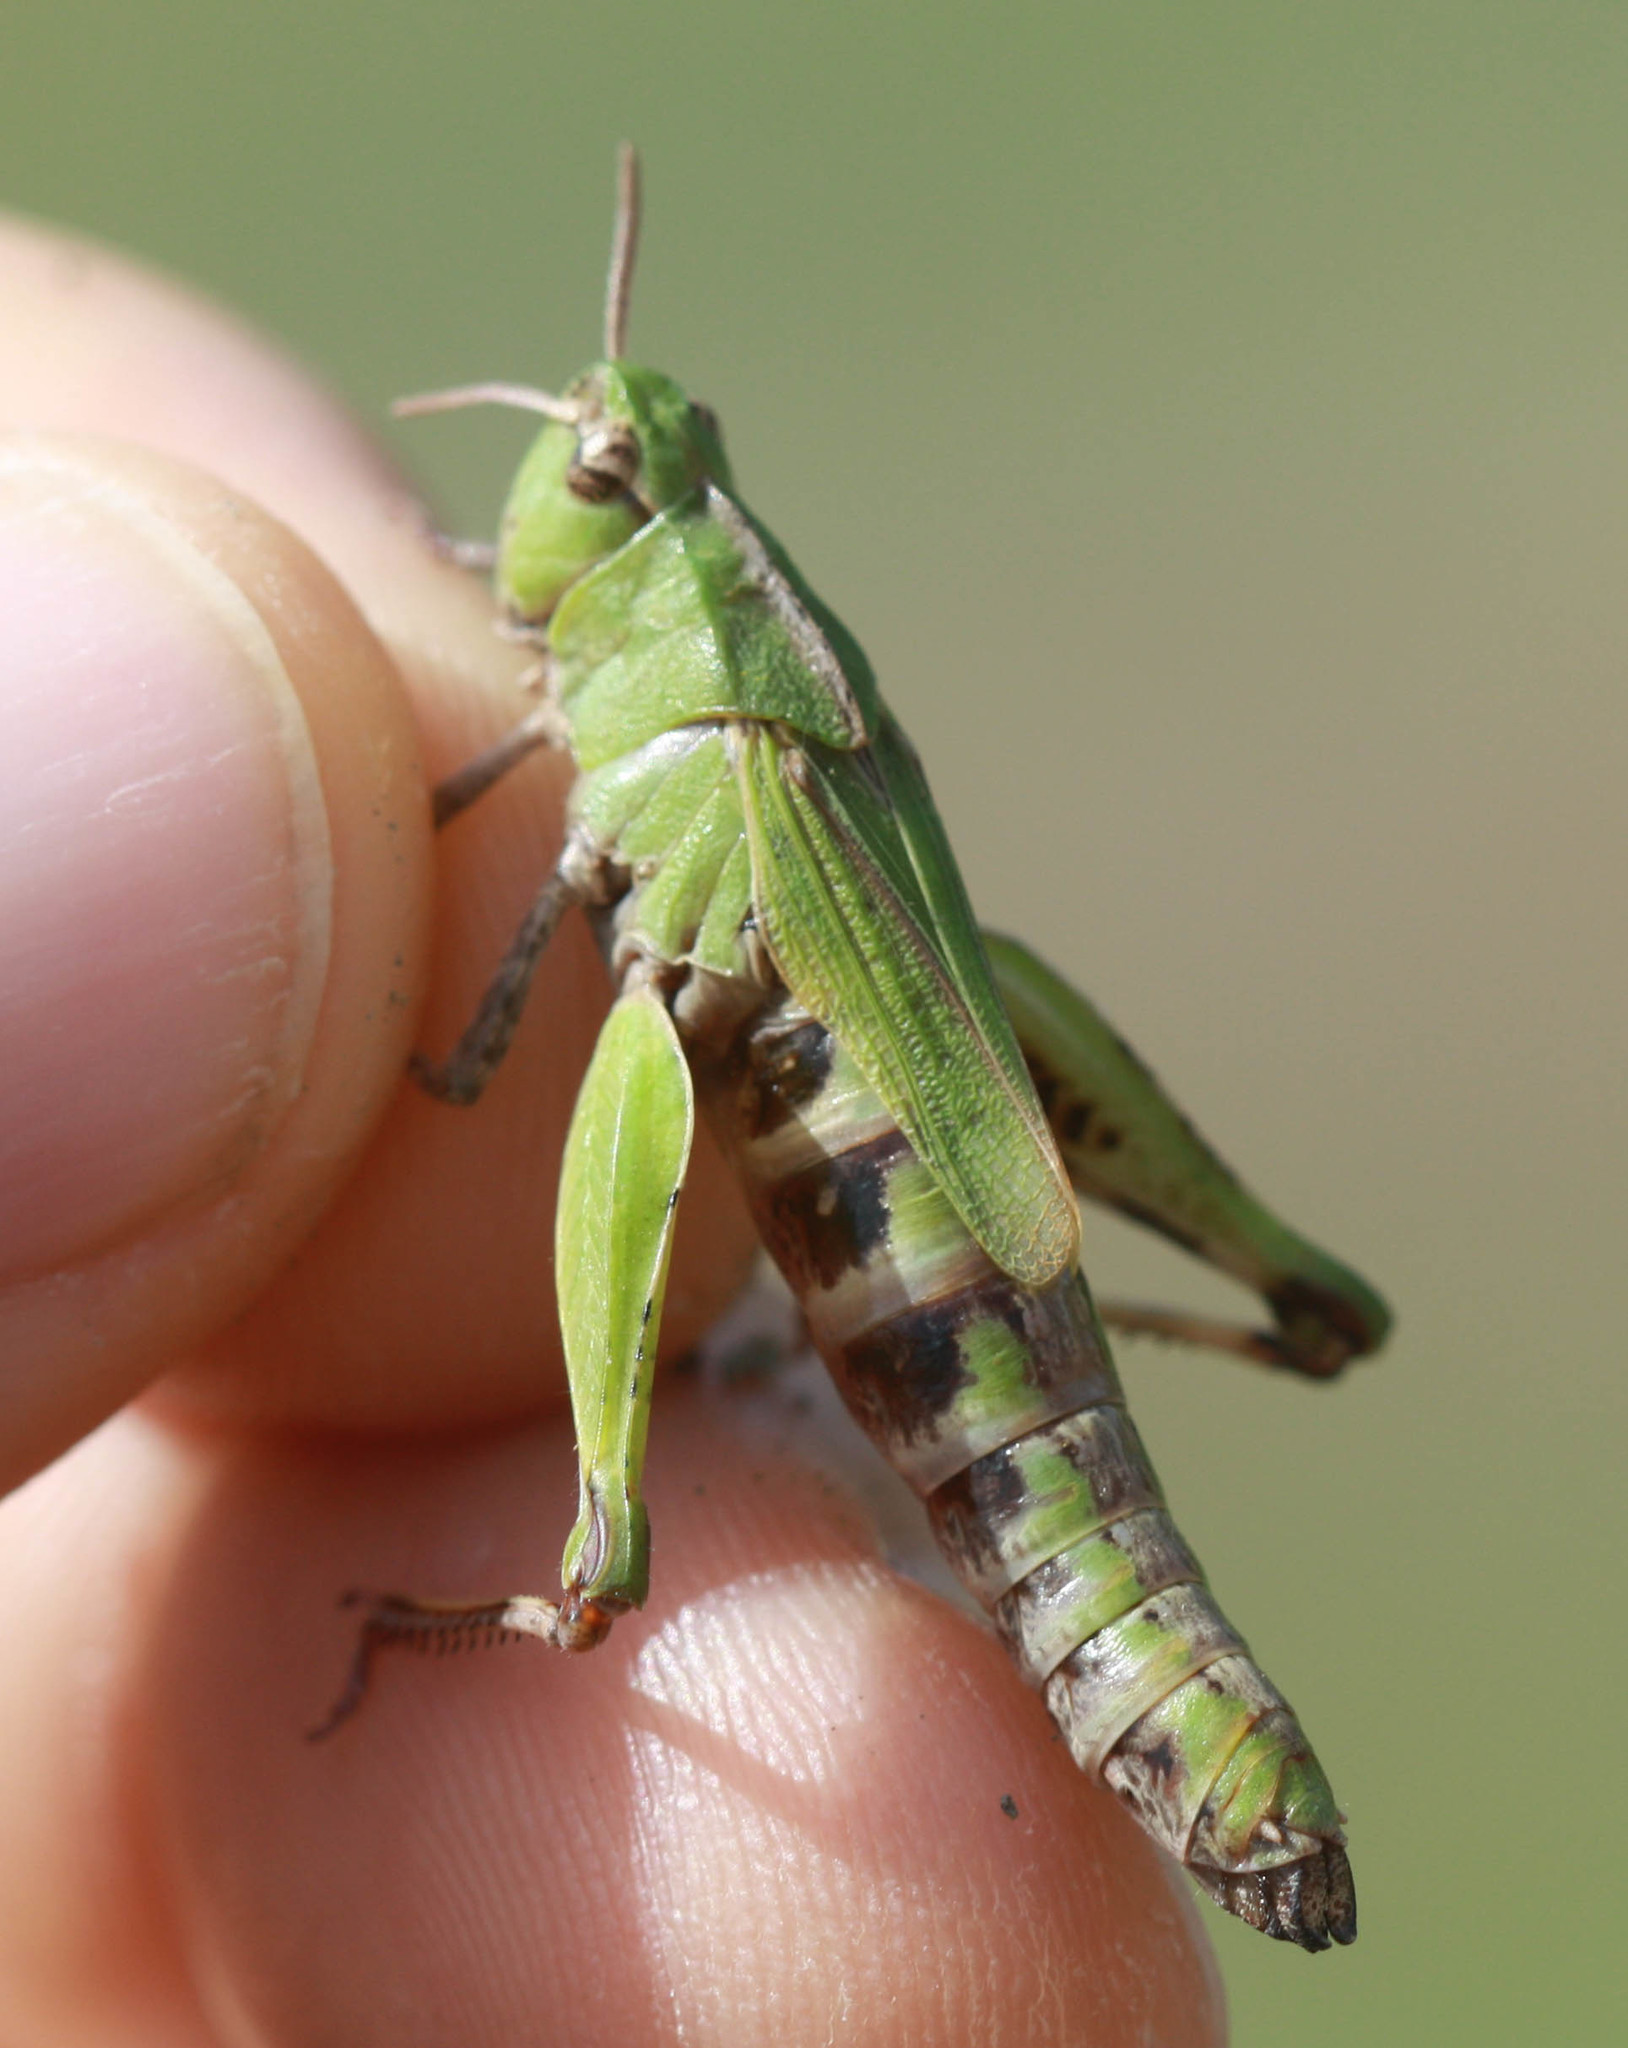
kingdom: Animalia
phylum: Arthropoda
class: Insecta
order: Orthoptera
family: Acrididae
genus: Chimarocephala
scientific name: Chimarocephala pacifica
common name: Painted meadow grasshopper
